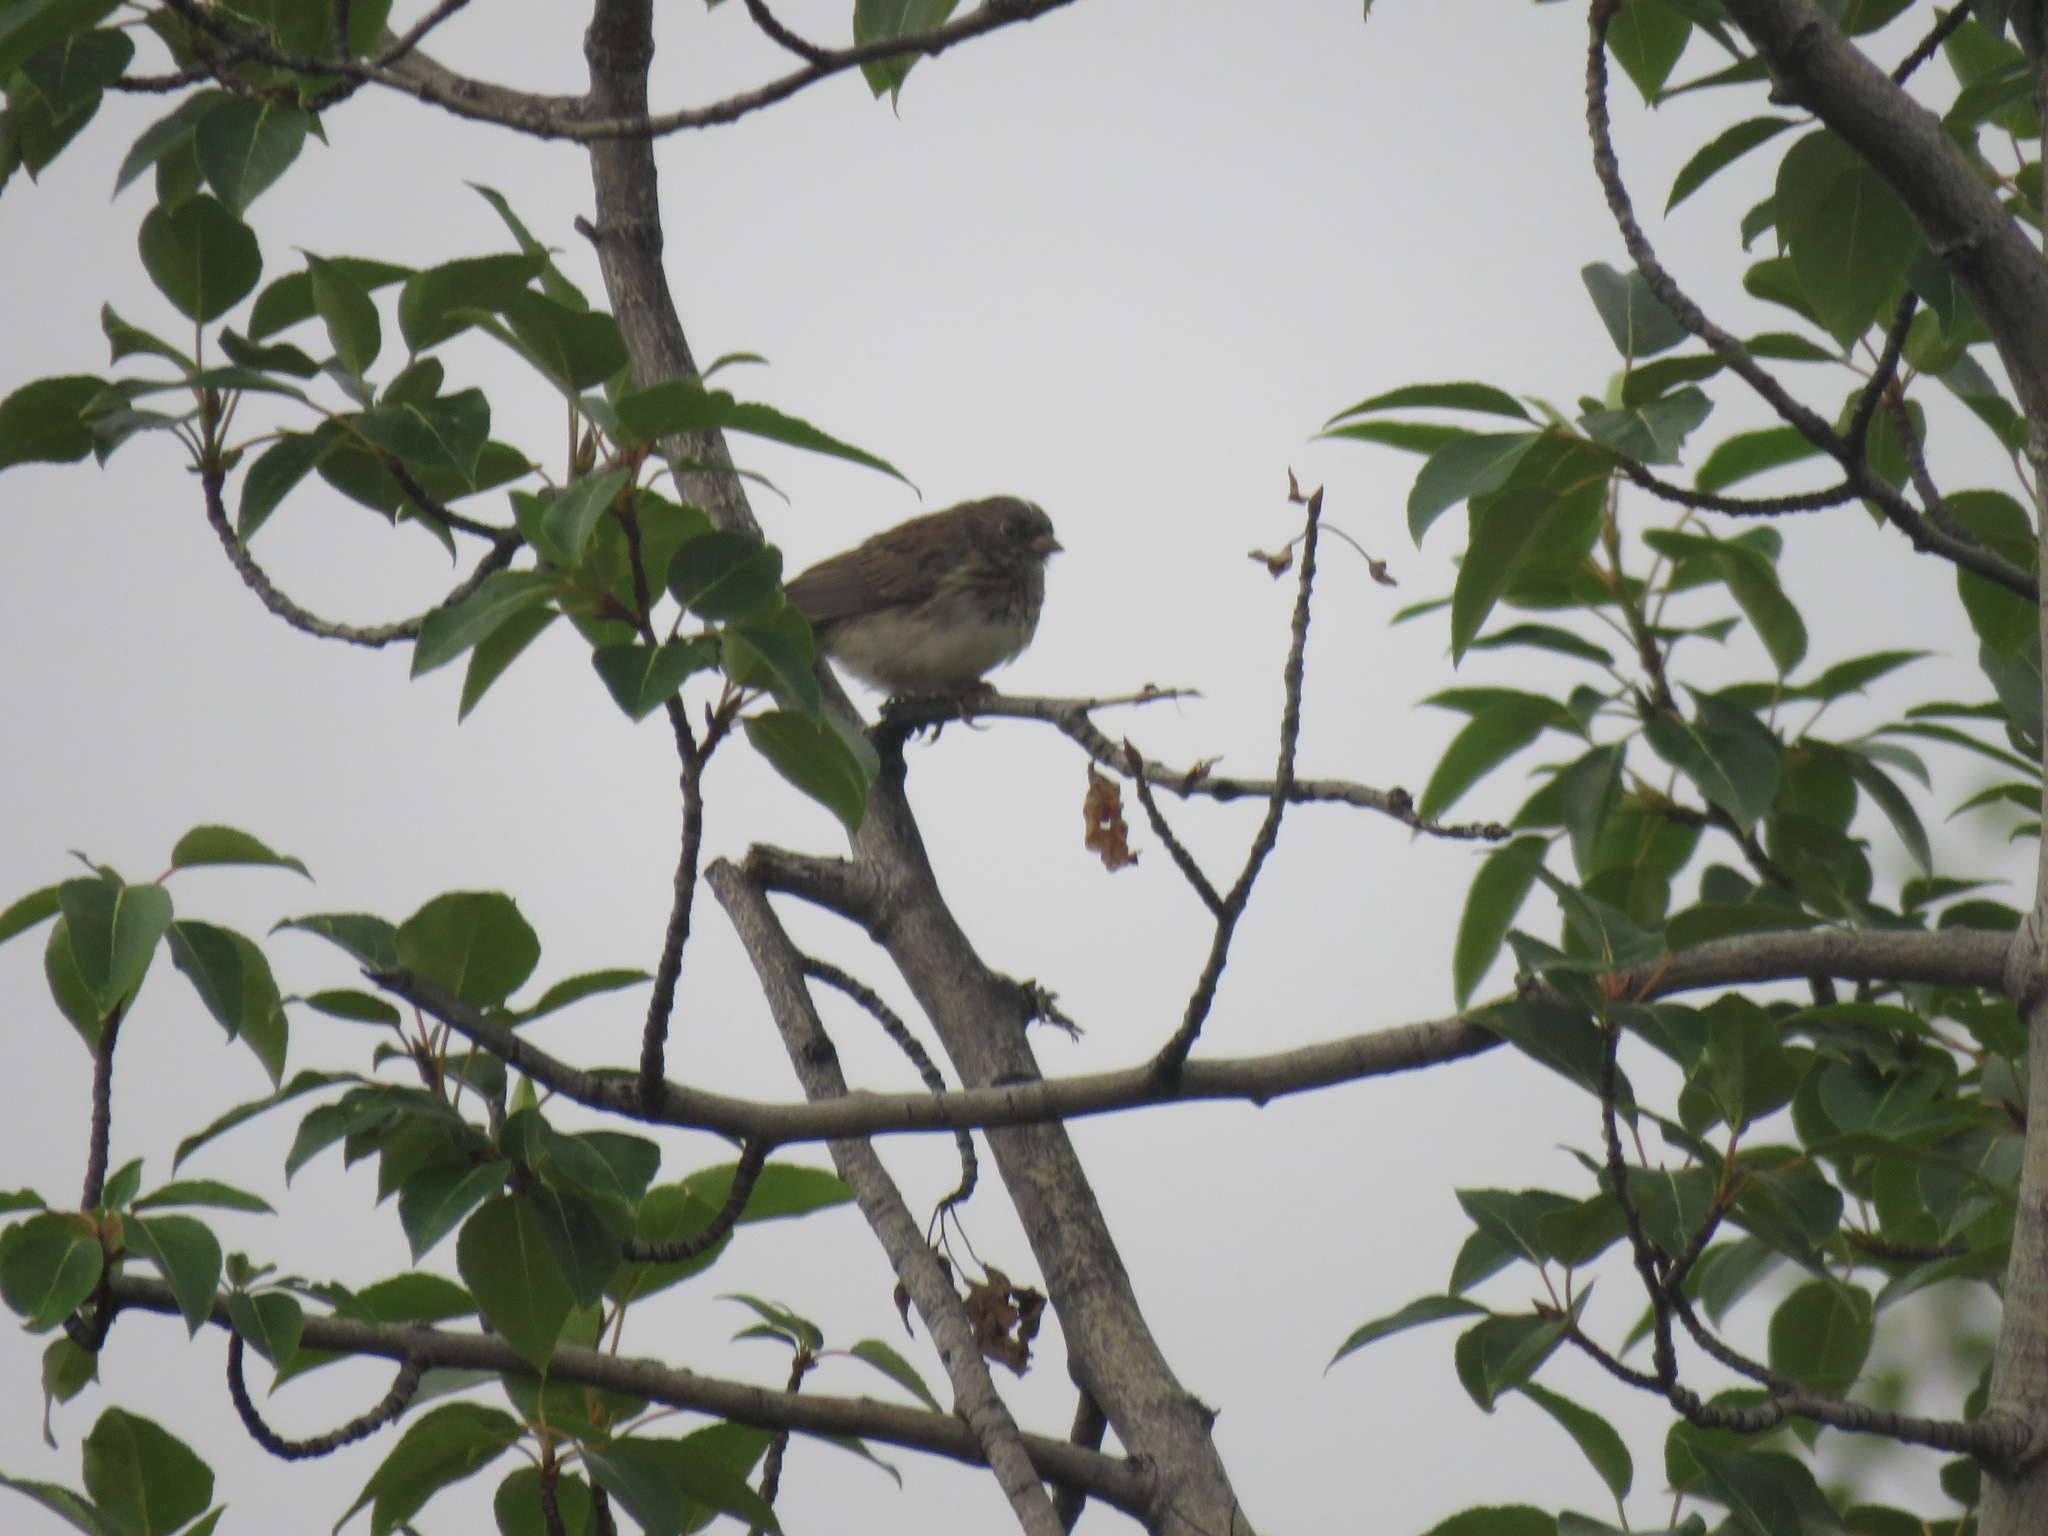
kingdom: Animalia
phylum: Chordata
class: Aves
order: Passeriformes
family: Passerellidae
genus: Junco
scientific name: Junco hyemalis
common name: Dark-eyed junco
